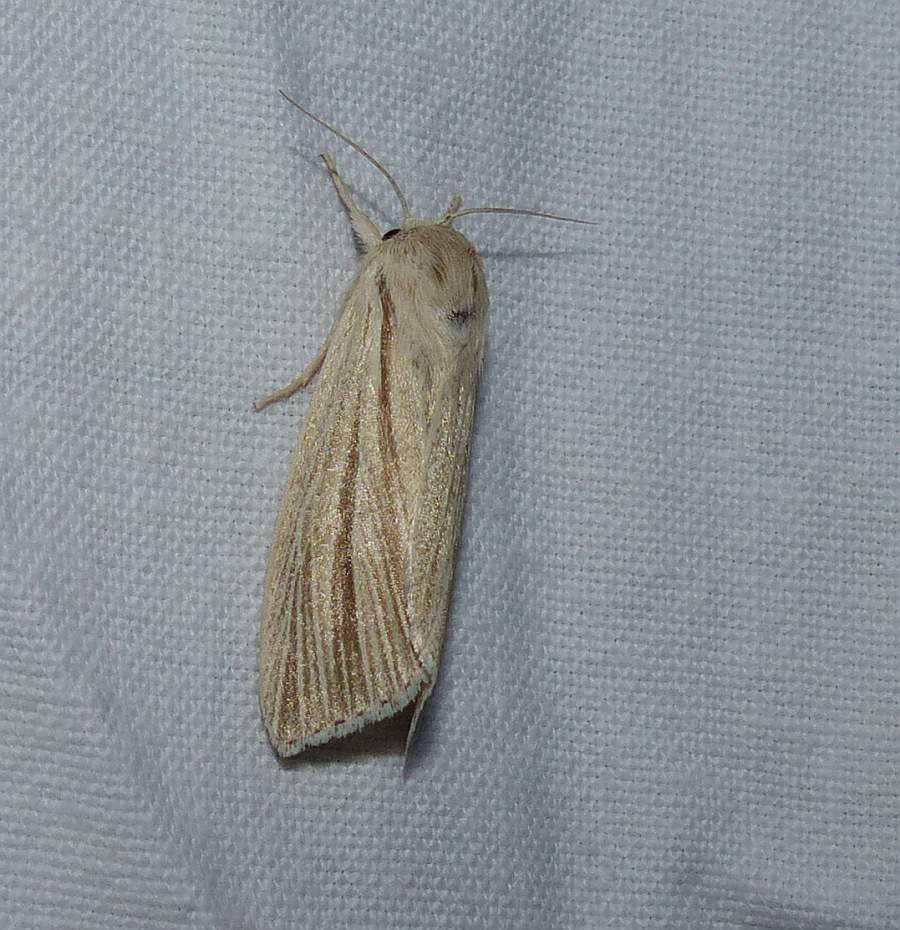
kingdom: Animalia
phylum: Arthropoda
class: Insecta
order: Lepidoptera
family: Noctuidae
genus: Acronicta
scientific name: Acronicta insularis
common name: Henry's marsh moth
